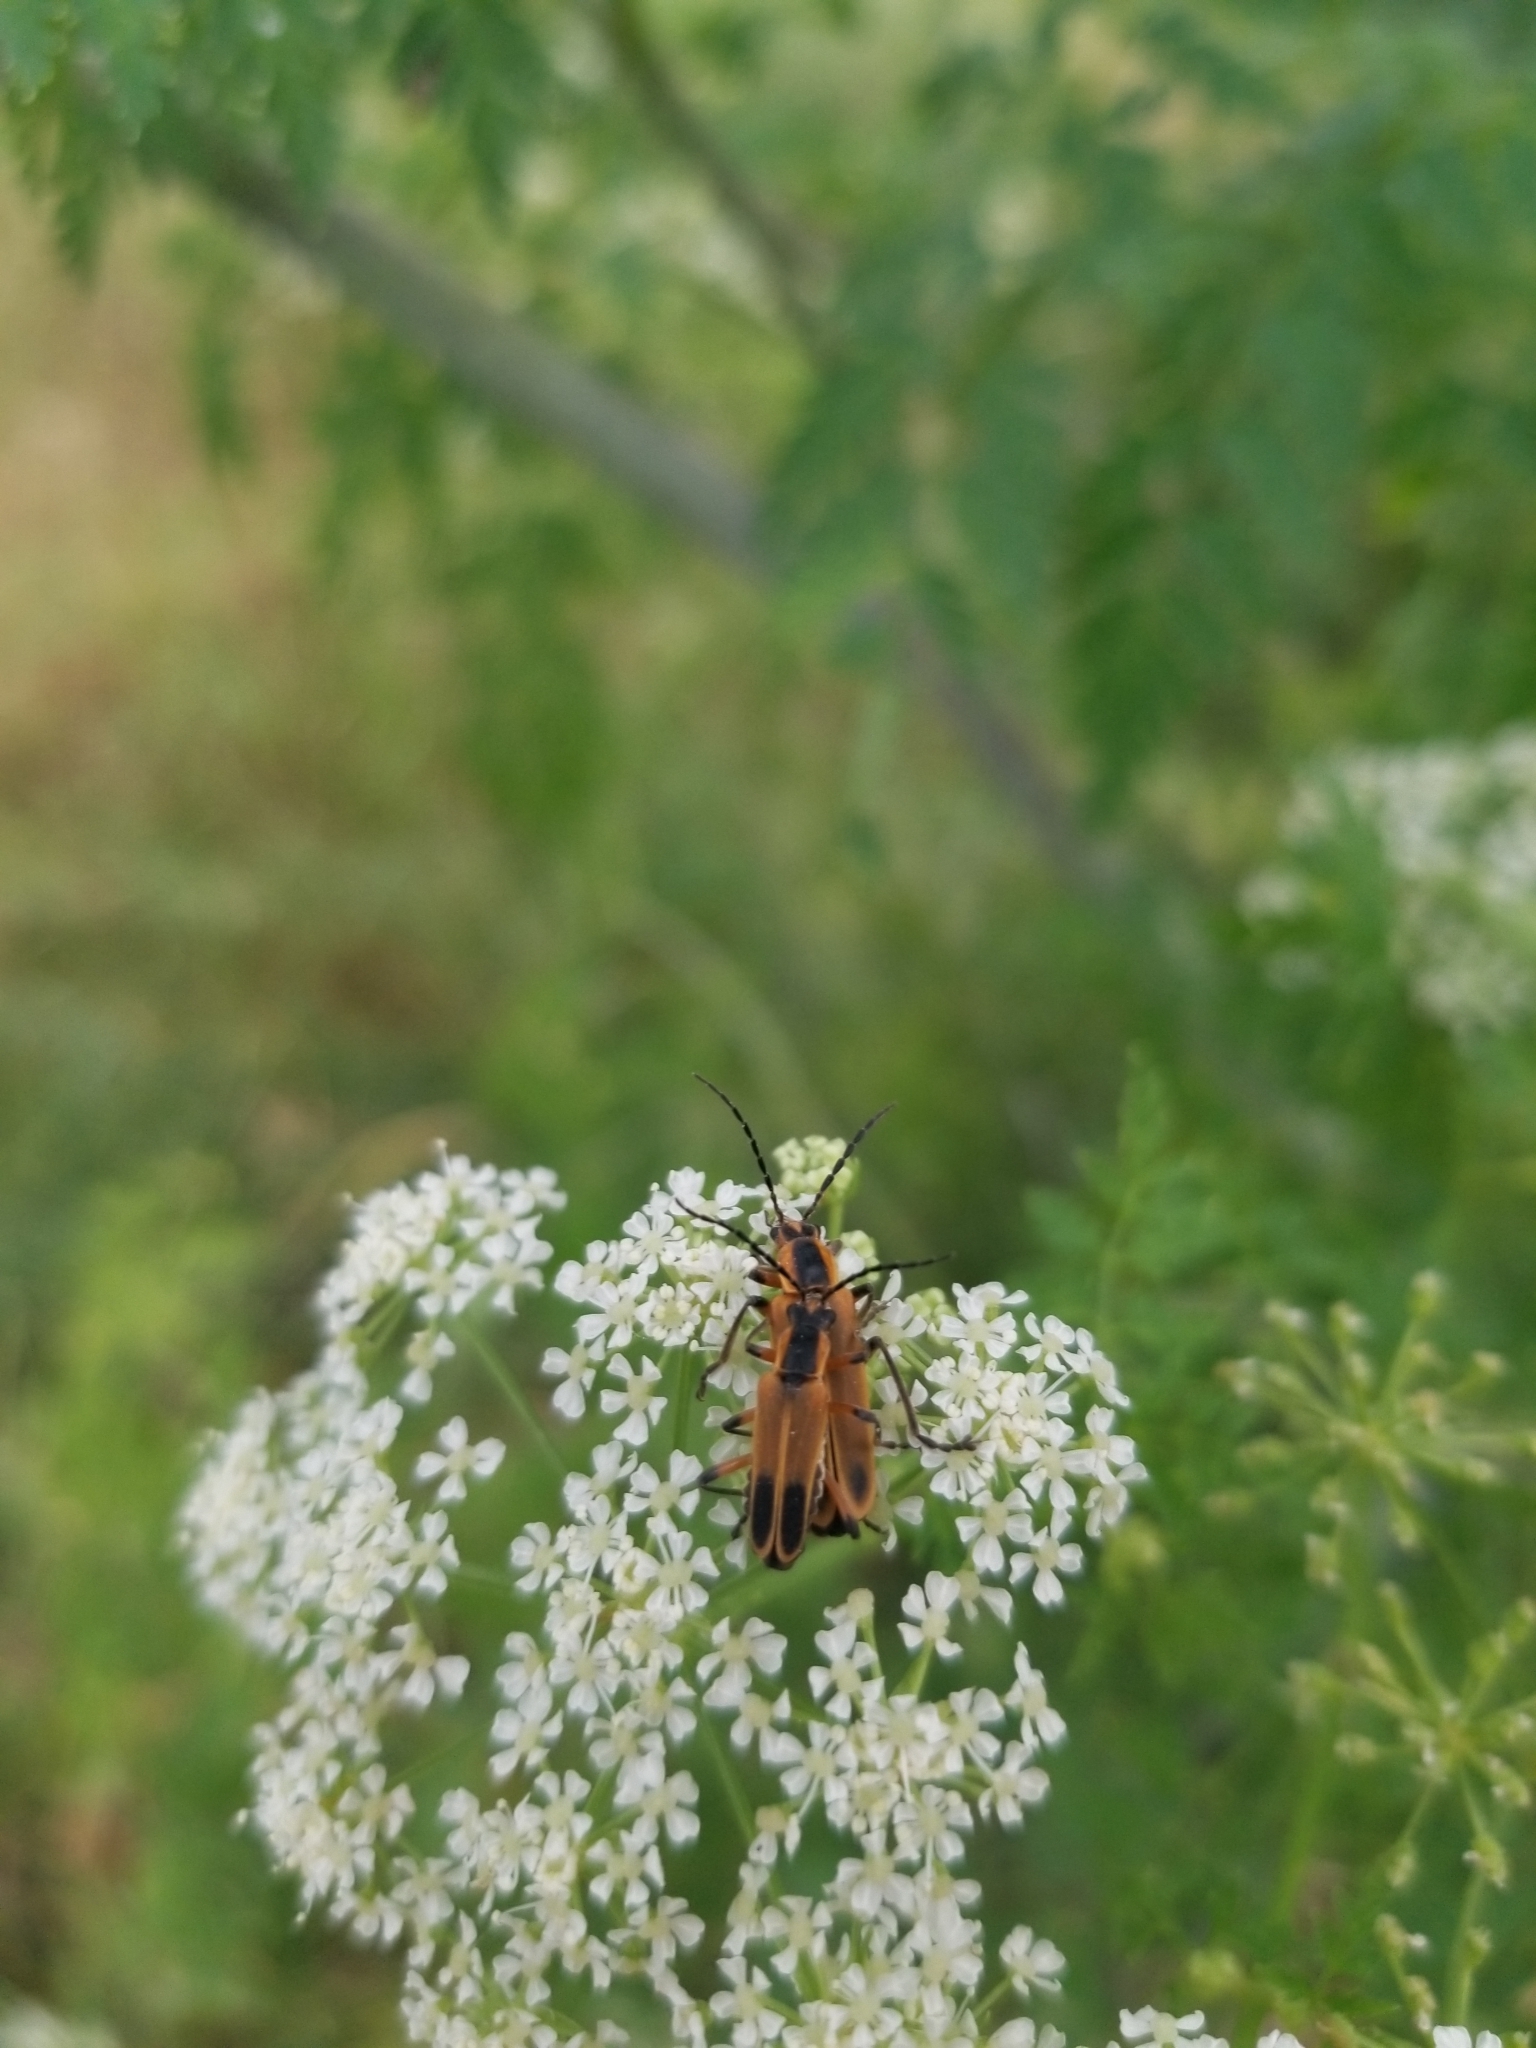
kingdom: Animalia
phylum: Arthropoda
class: Insecta
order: Coleoptera
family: Cantharidae
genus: Chauliognathus
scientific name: Chauliognathus marginatus
